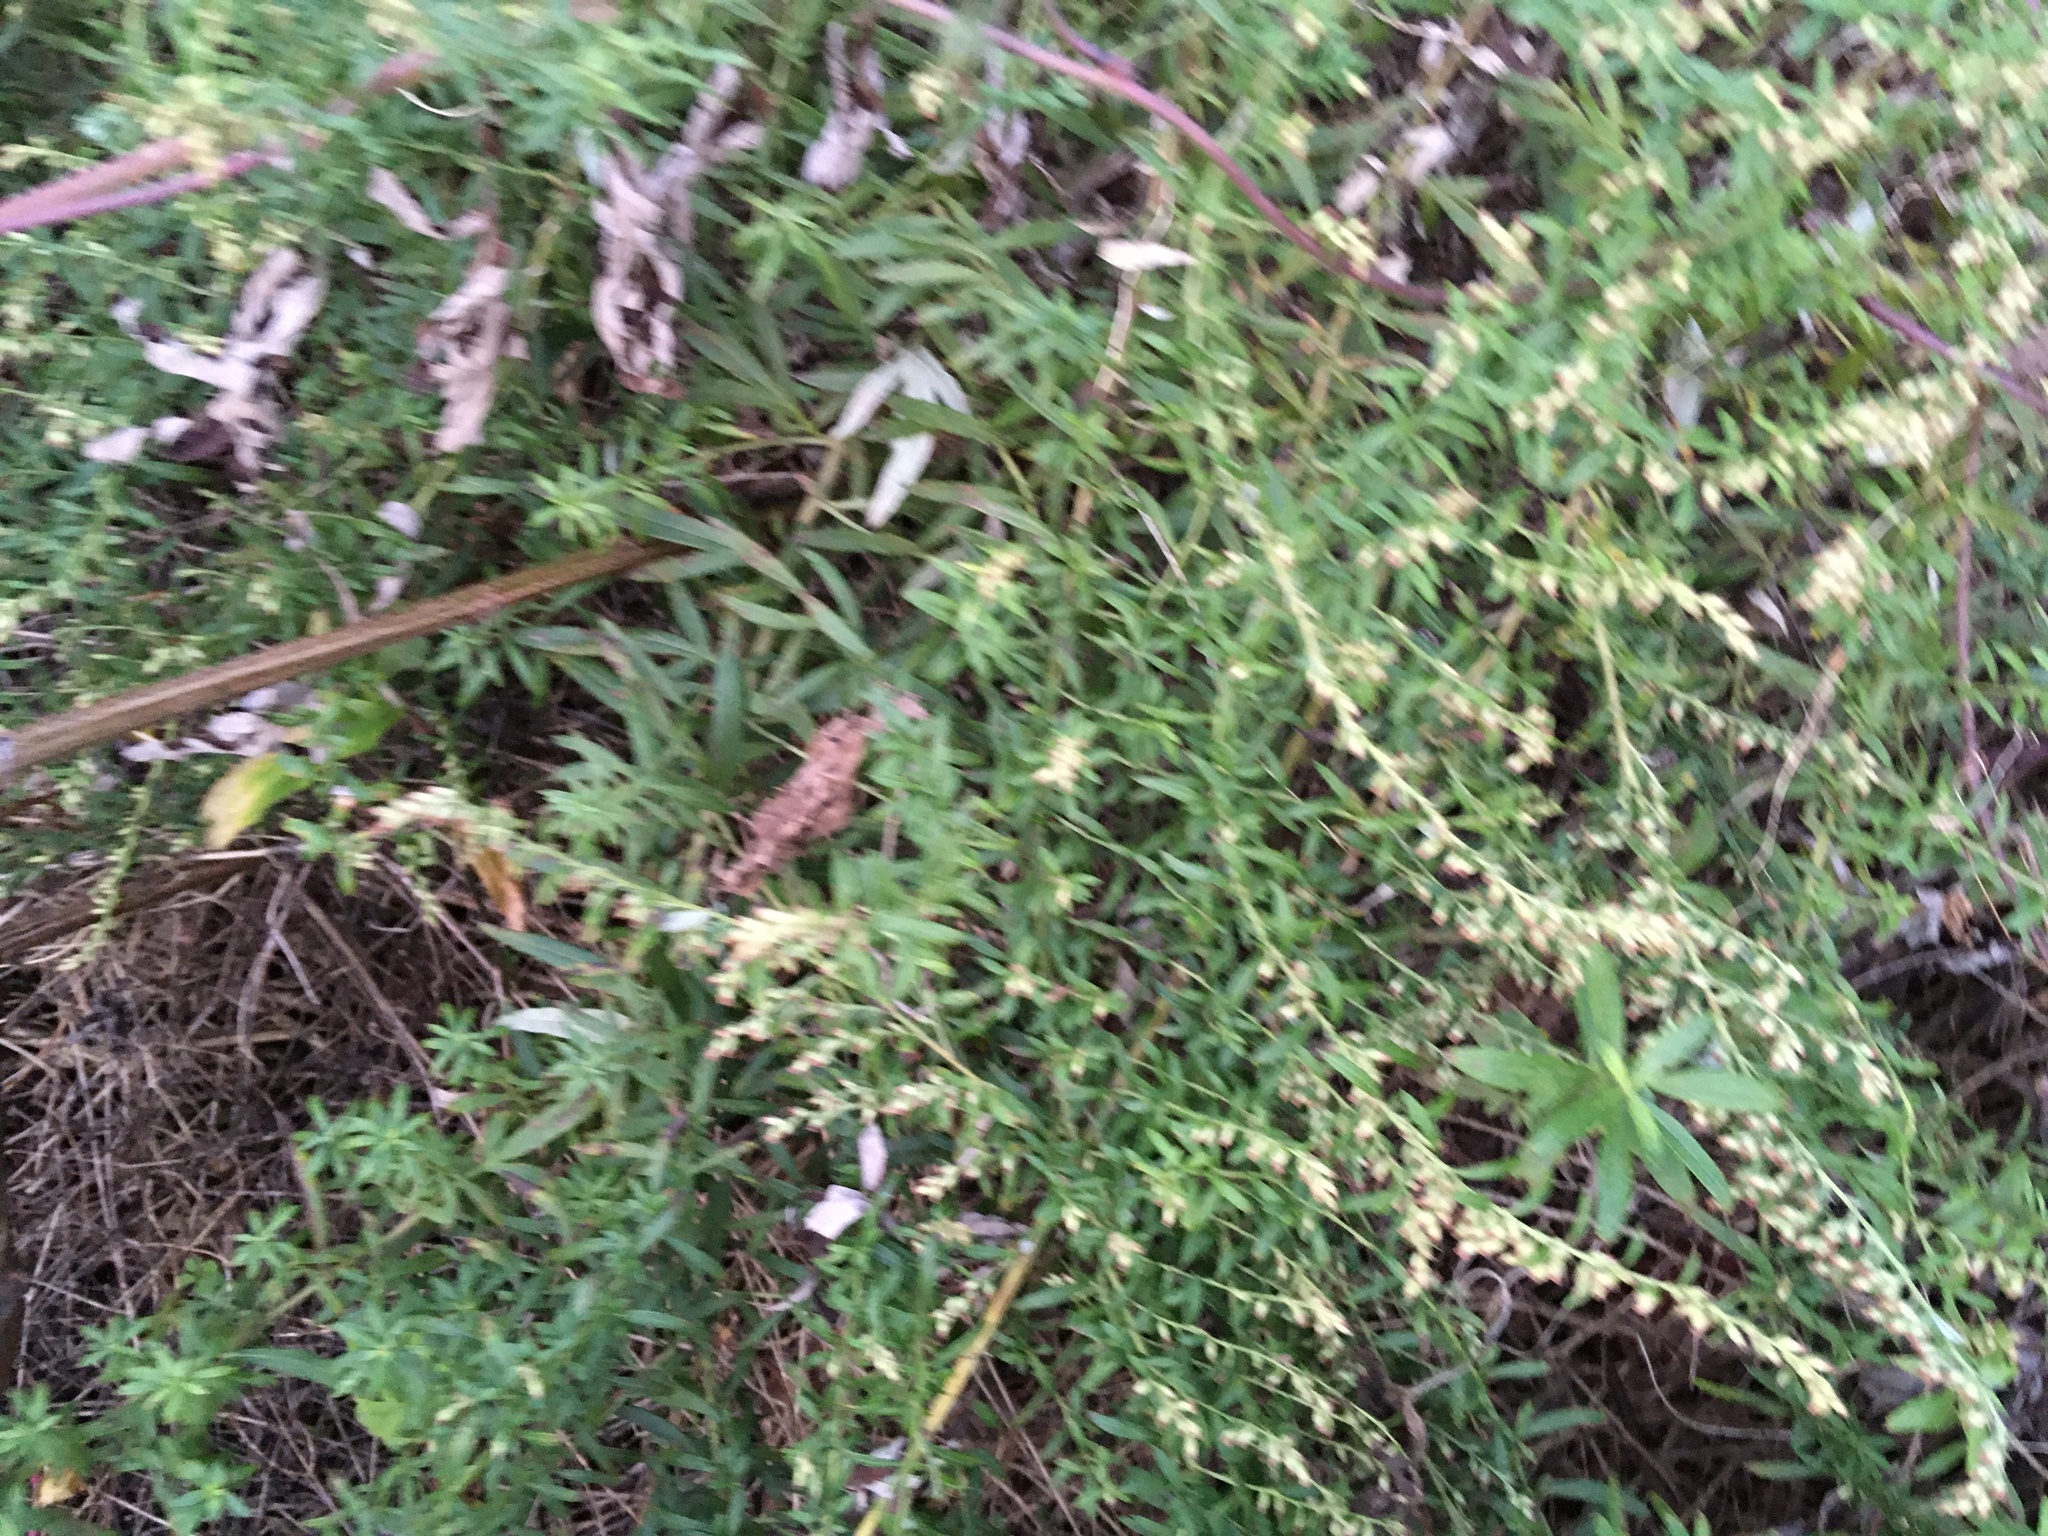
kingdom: Plantae
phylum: Tracheophyta
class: Magnoliopsida
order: Asterales
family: Asteraceae
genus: Artemisia
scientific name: Artemisia vulgaris
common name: Mugwort
